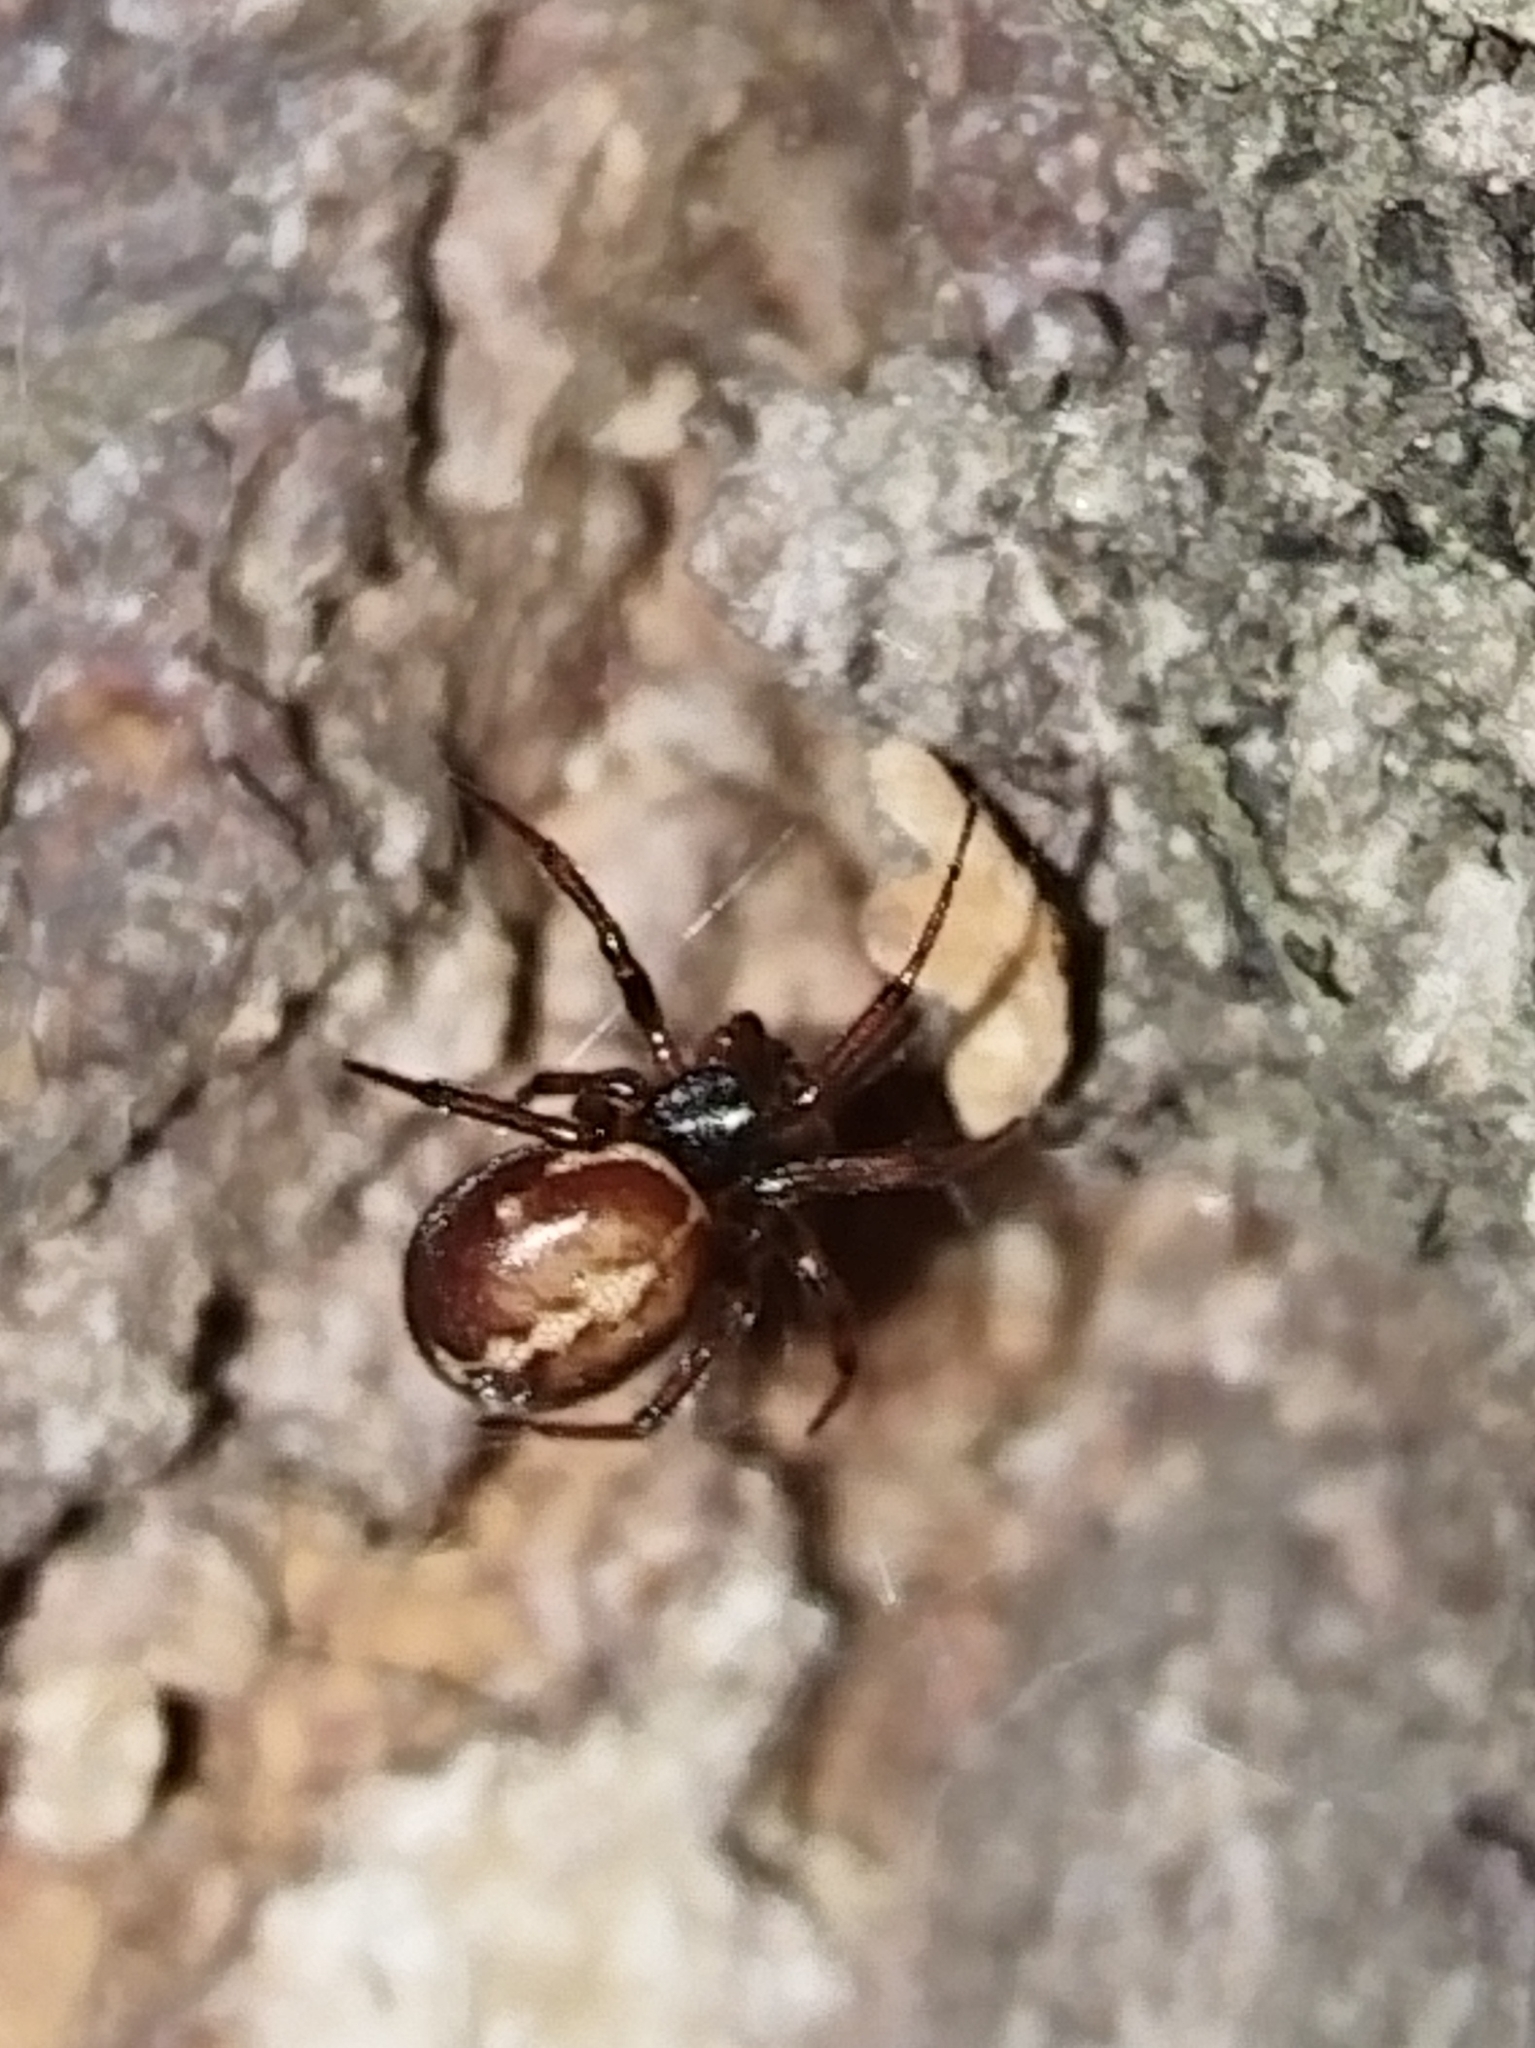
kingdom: Animalia
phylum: Arthropoda
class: Arachnida
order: Araneae
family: Theridiidae
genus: Steatoda
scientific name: Steatoda bipunctata
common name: False widow
